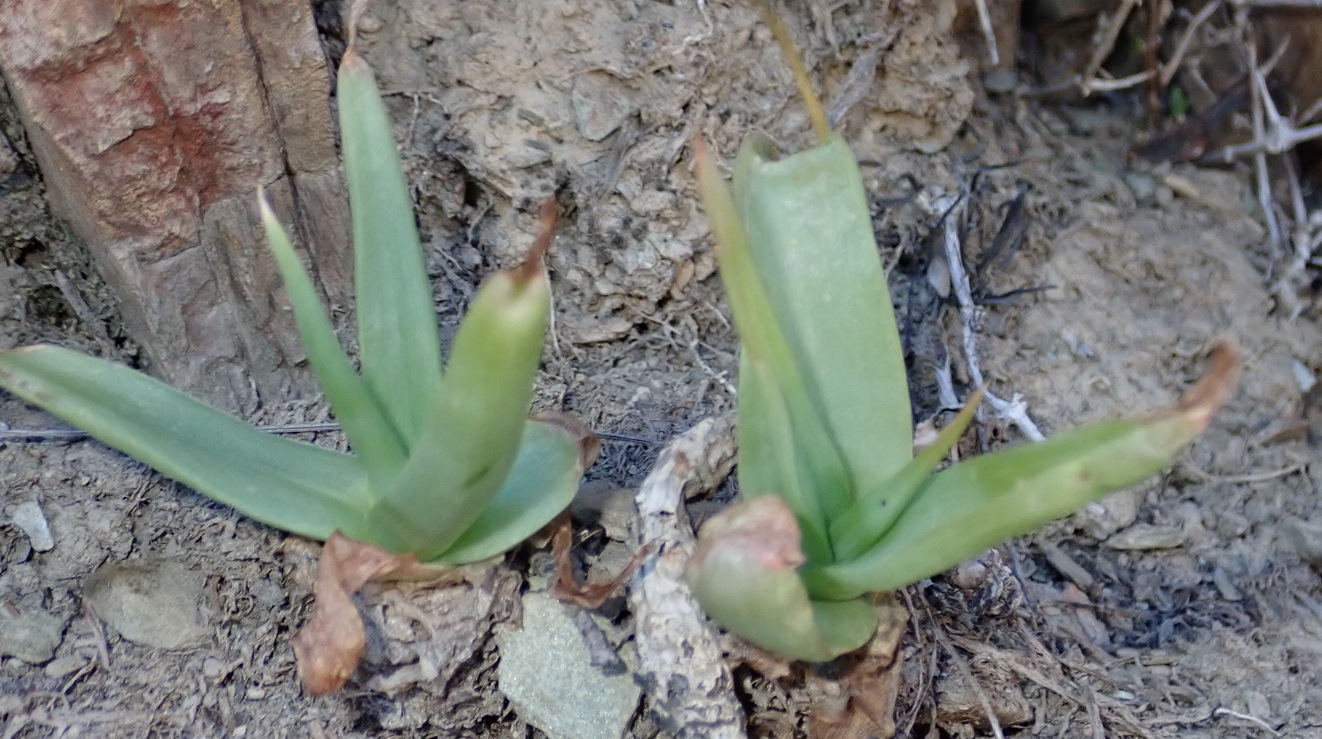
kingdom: Plantae
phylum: Tracheophyta
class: Liliopsida
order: Asparagales
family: Asphodelaceae
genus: Bulbine
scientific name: Bulbine latifolia
